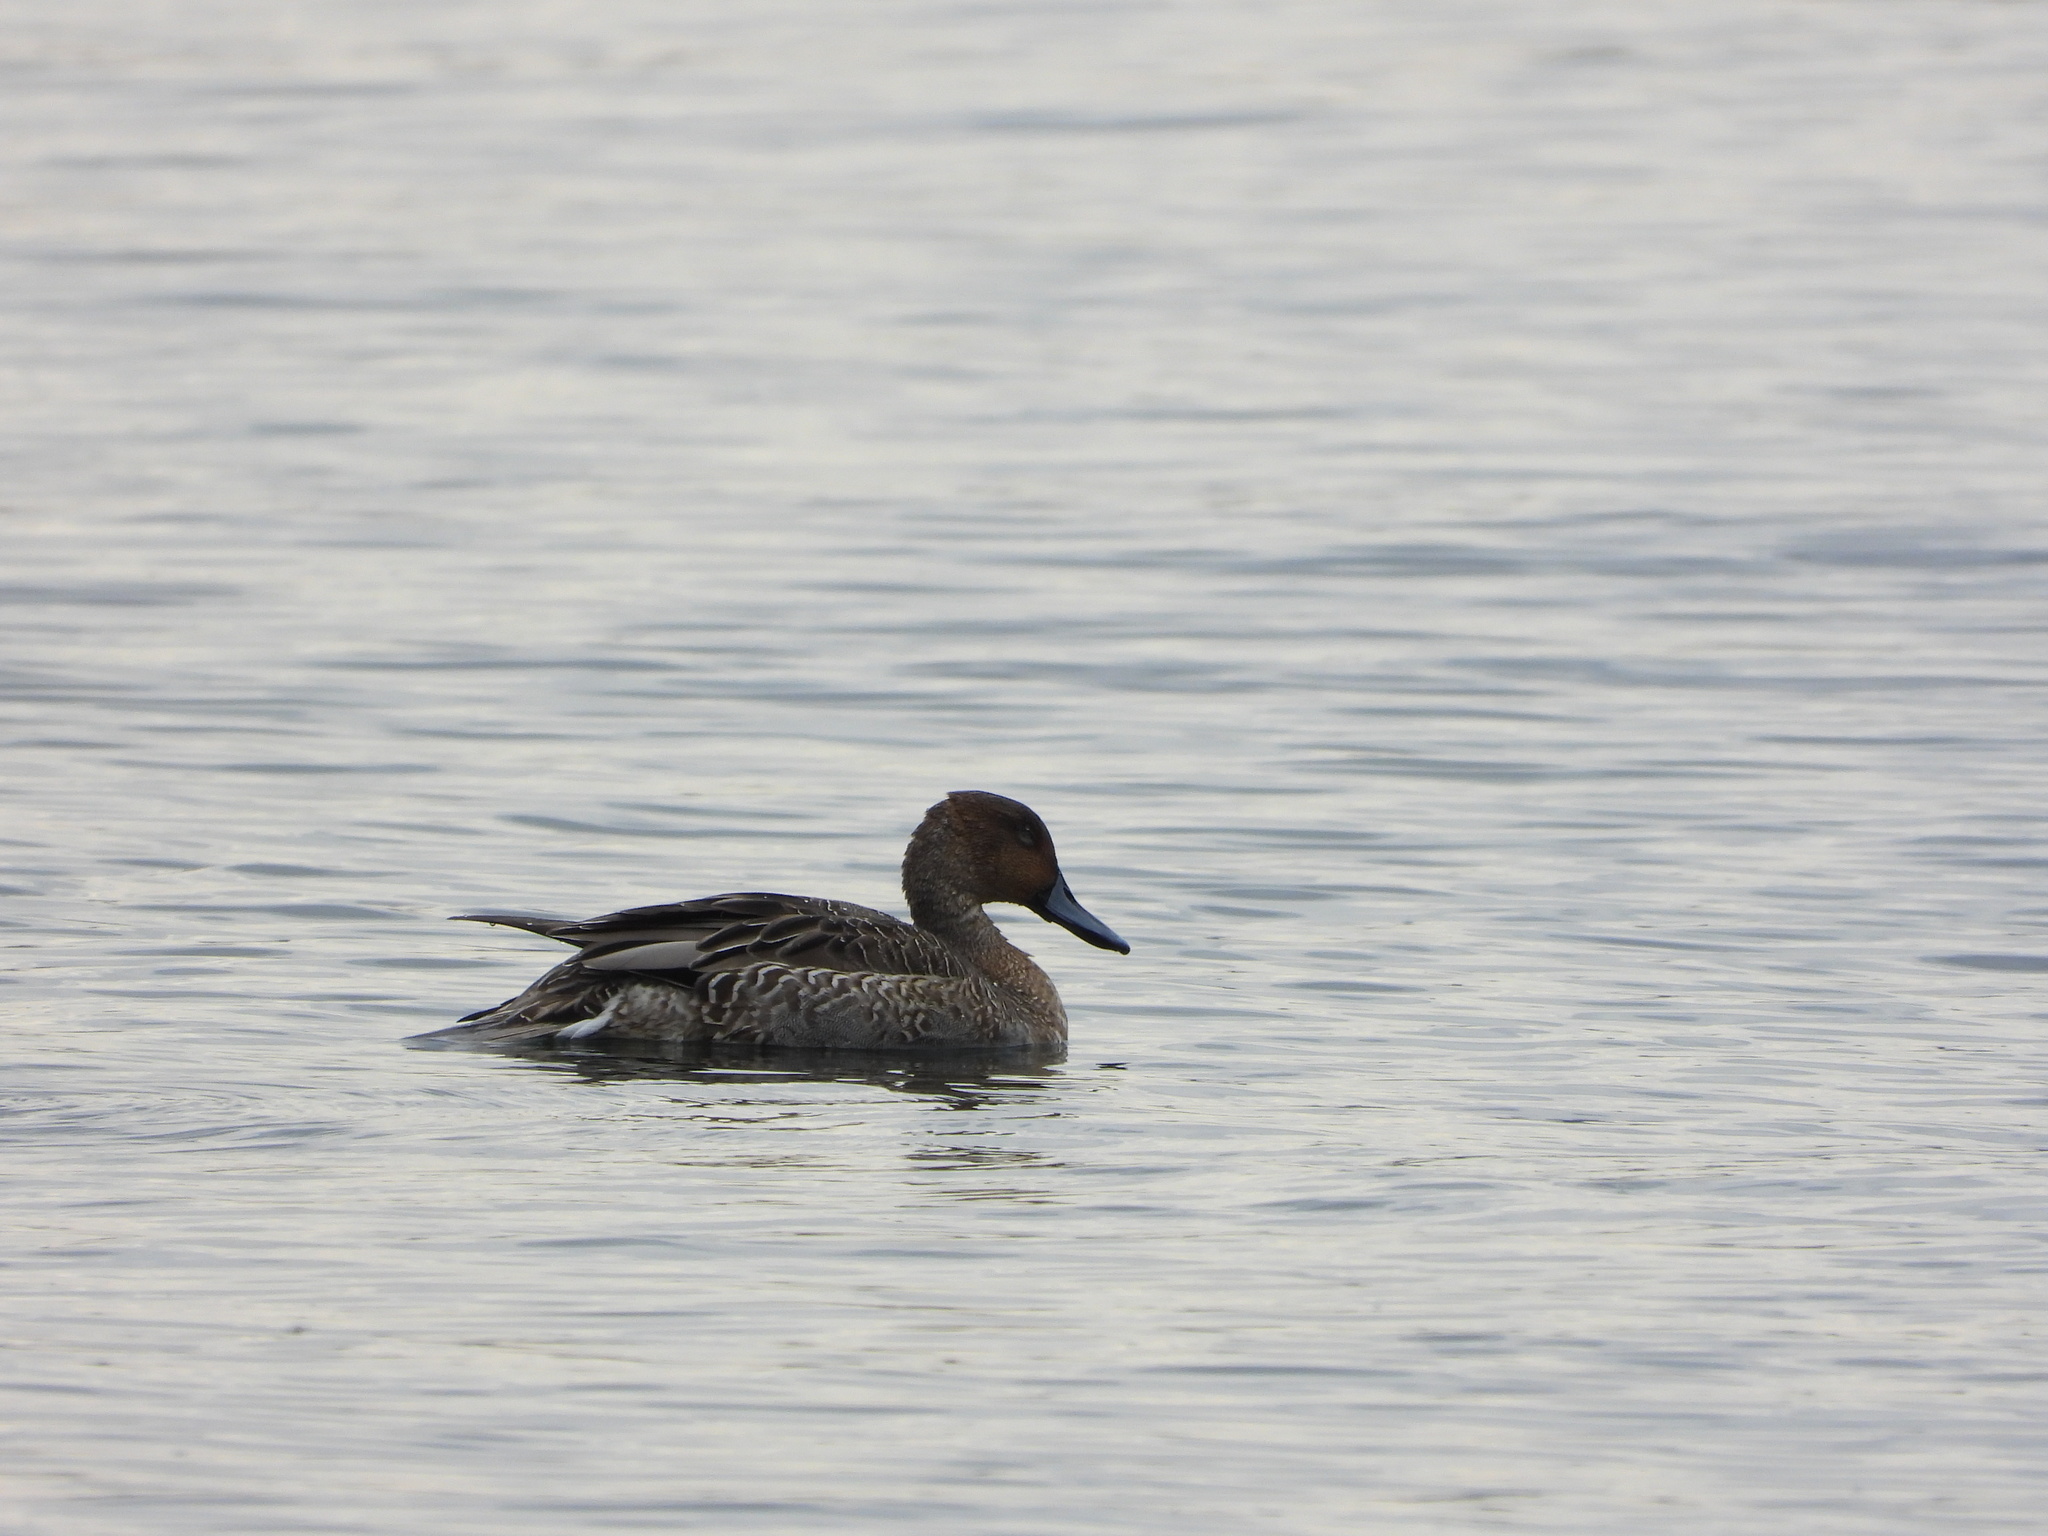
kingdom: Animalia
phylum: Chordata
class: Aves
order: Anseriformes
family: Anatidae
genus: Anas
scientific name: Anas acuta
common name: Northern pintail
